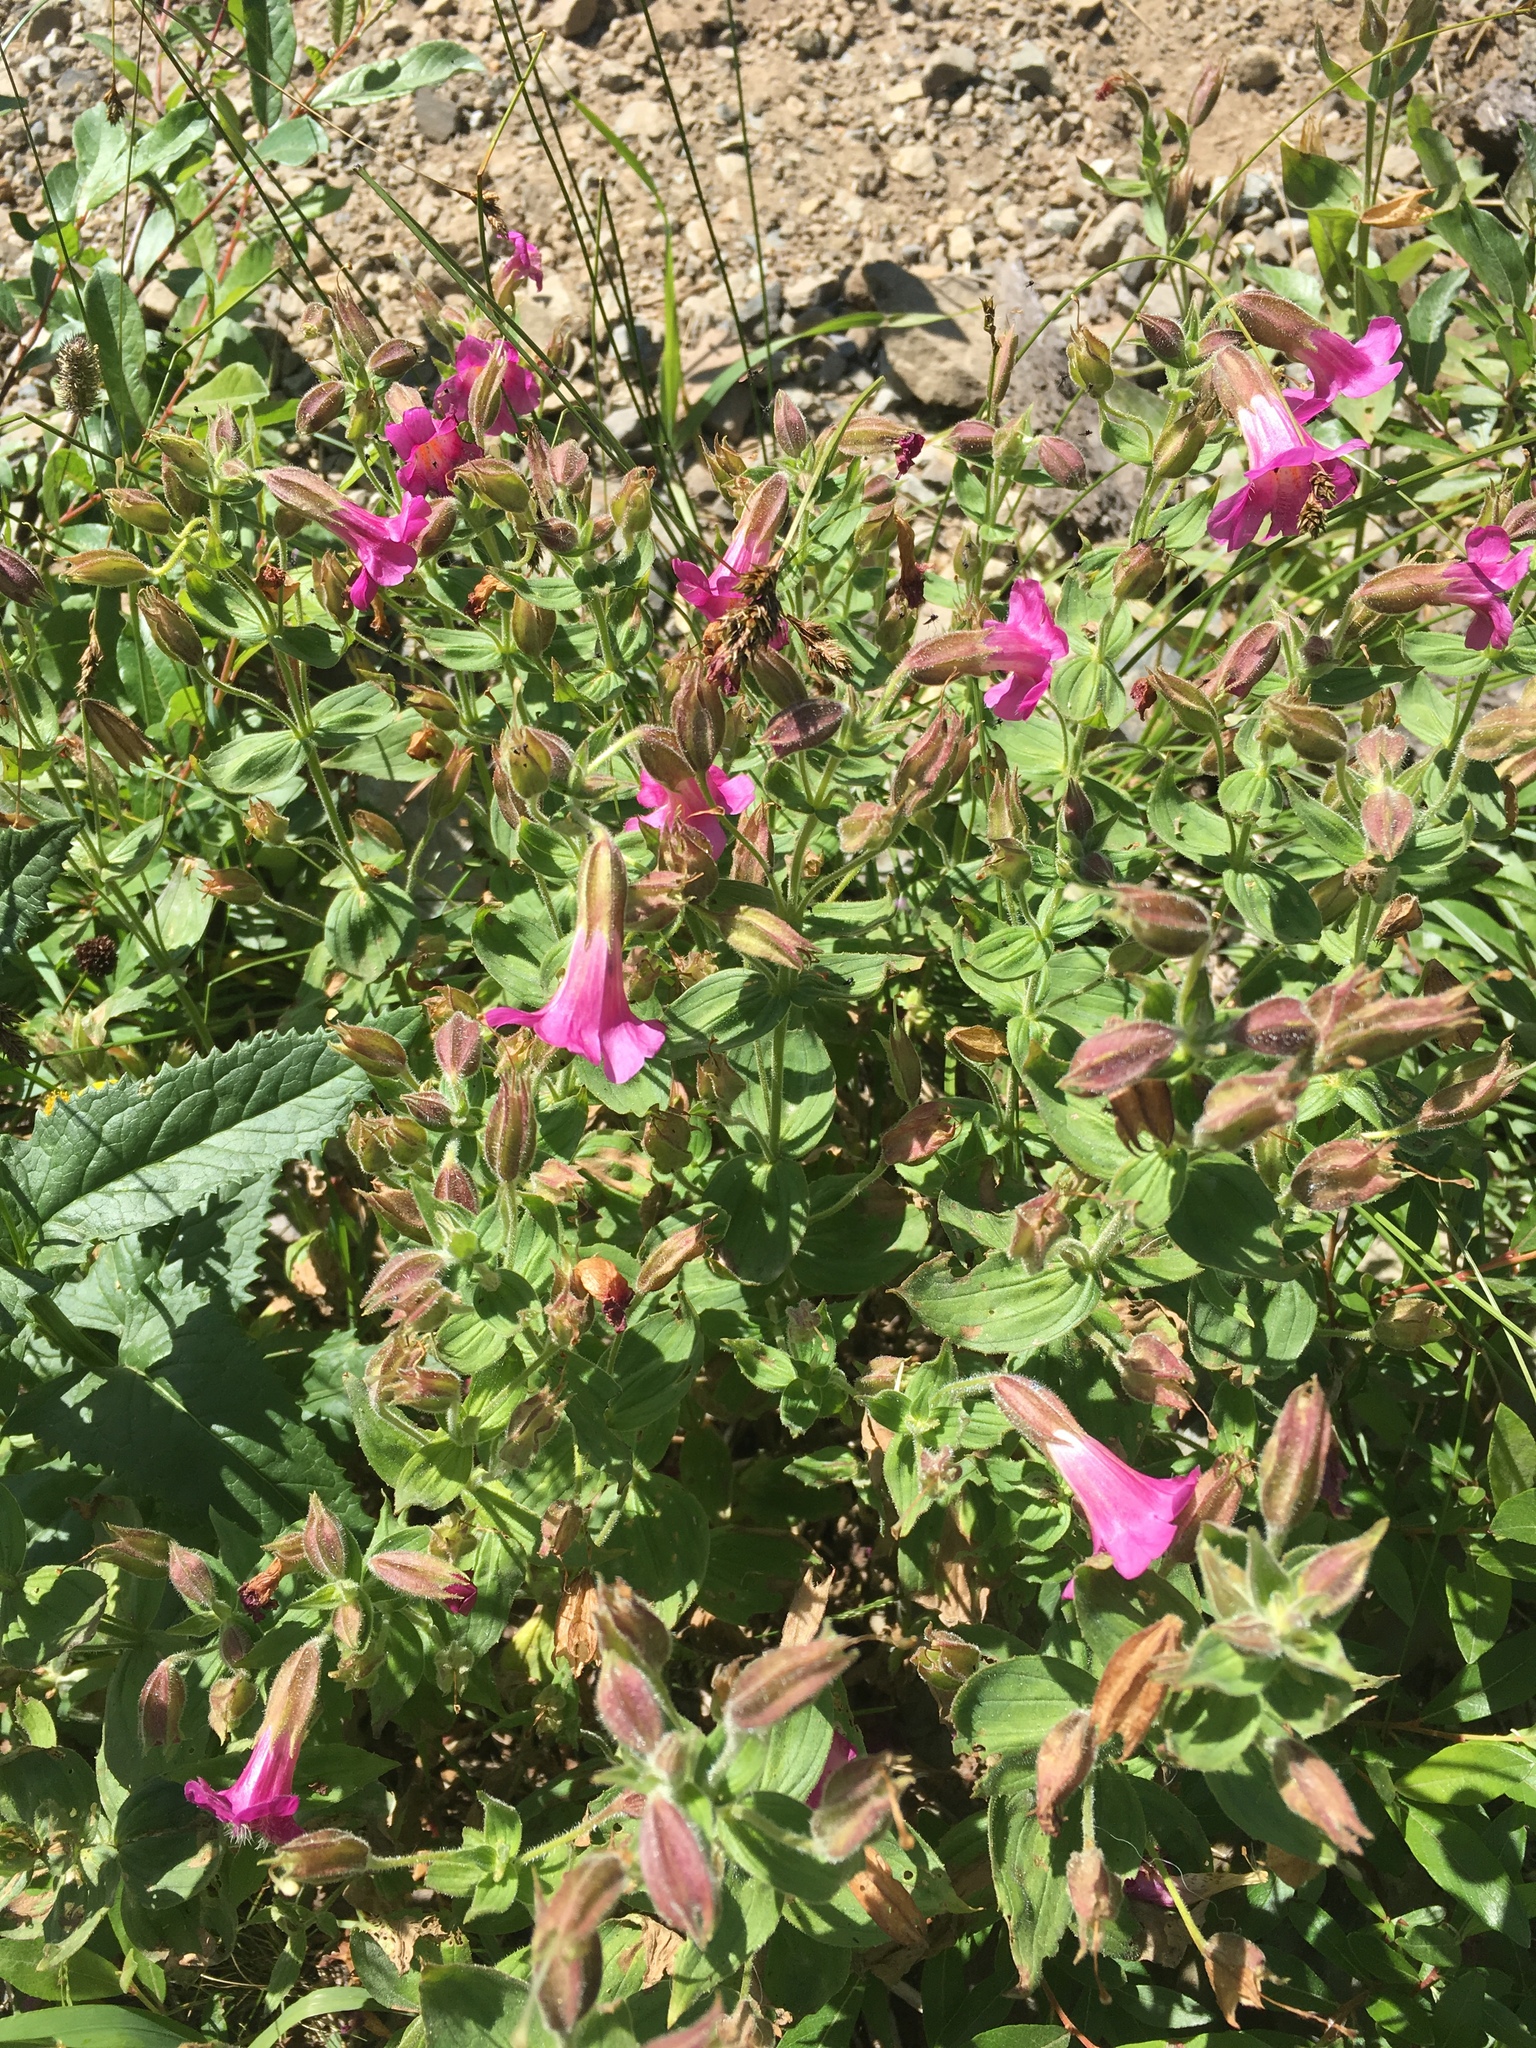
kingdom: Plantae
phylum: Tracheophyta
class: Magnoliopsida
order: Lamiales
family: Phrymaceae
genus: Erythranthe
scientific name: Erythranthe lewisii
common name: Lewis's monkey-flower
